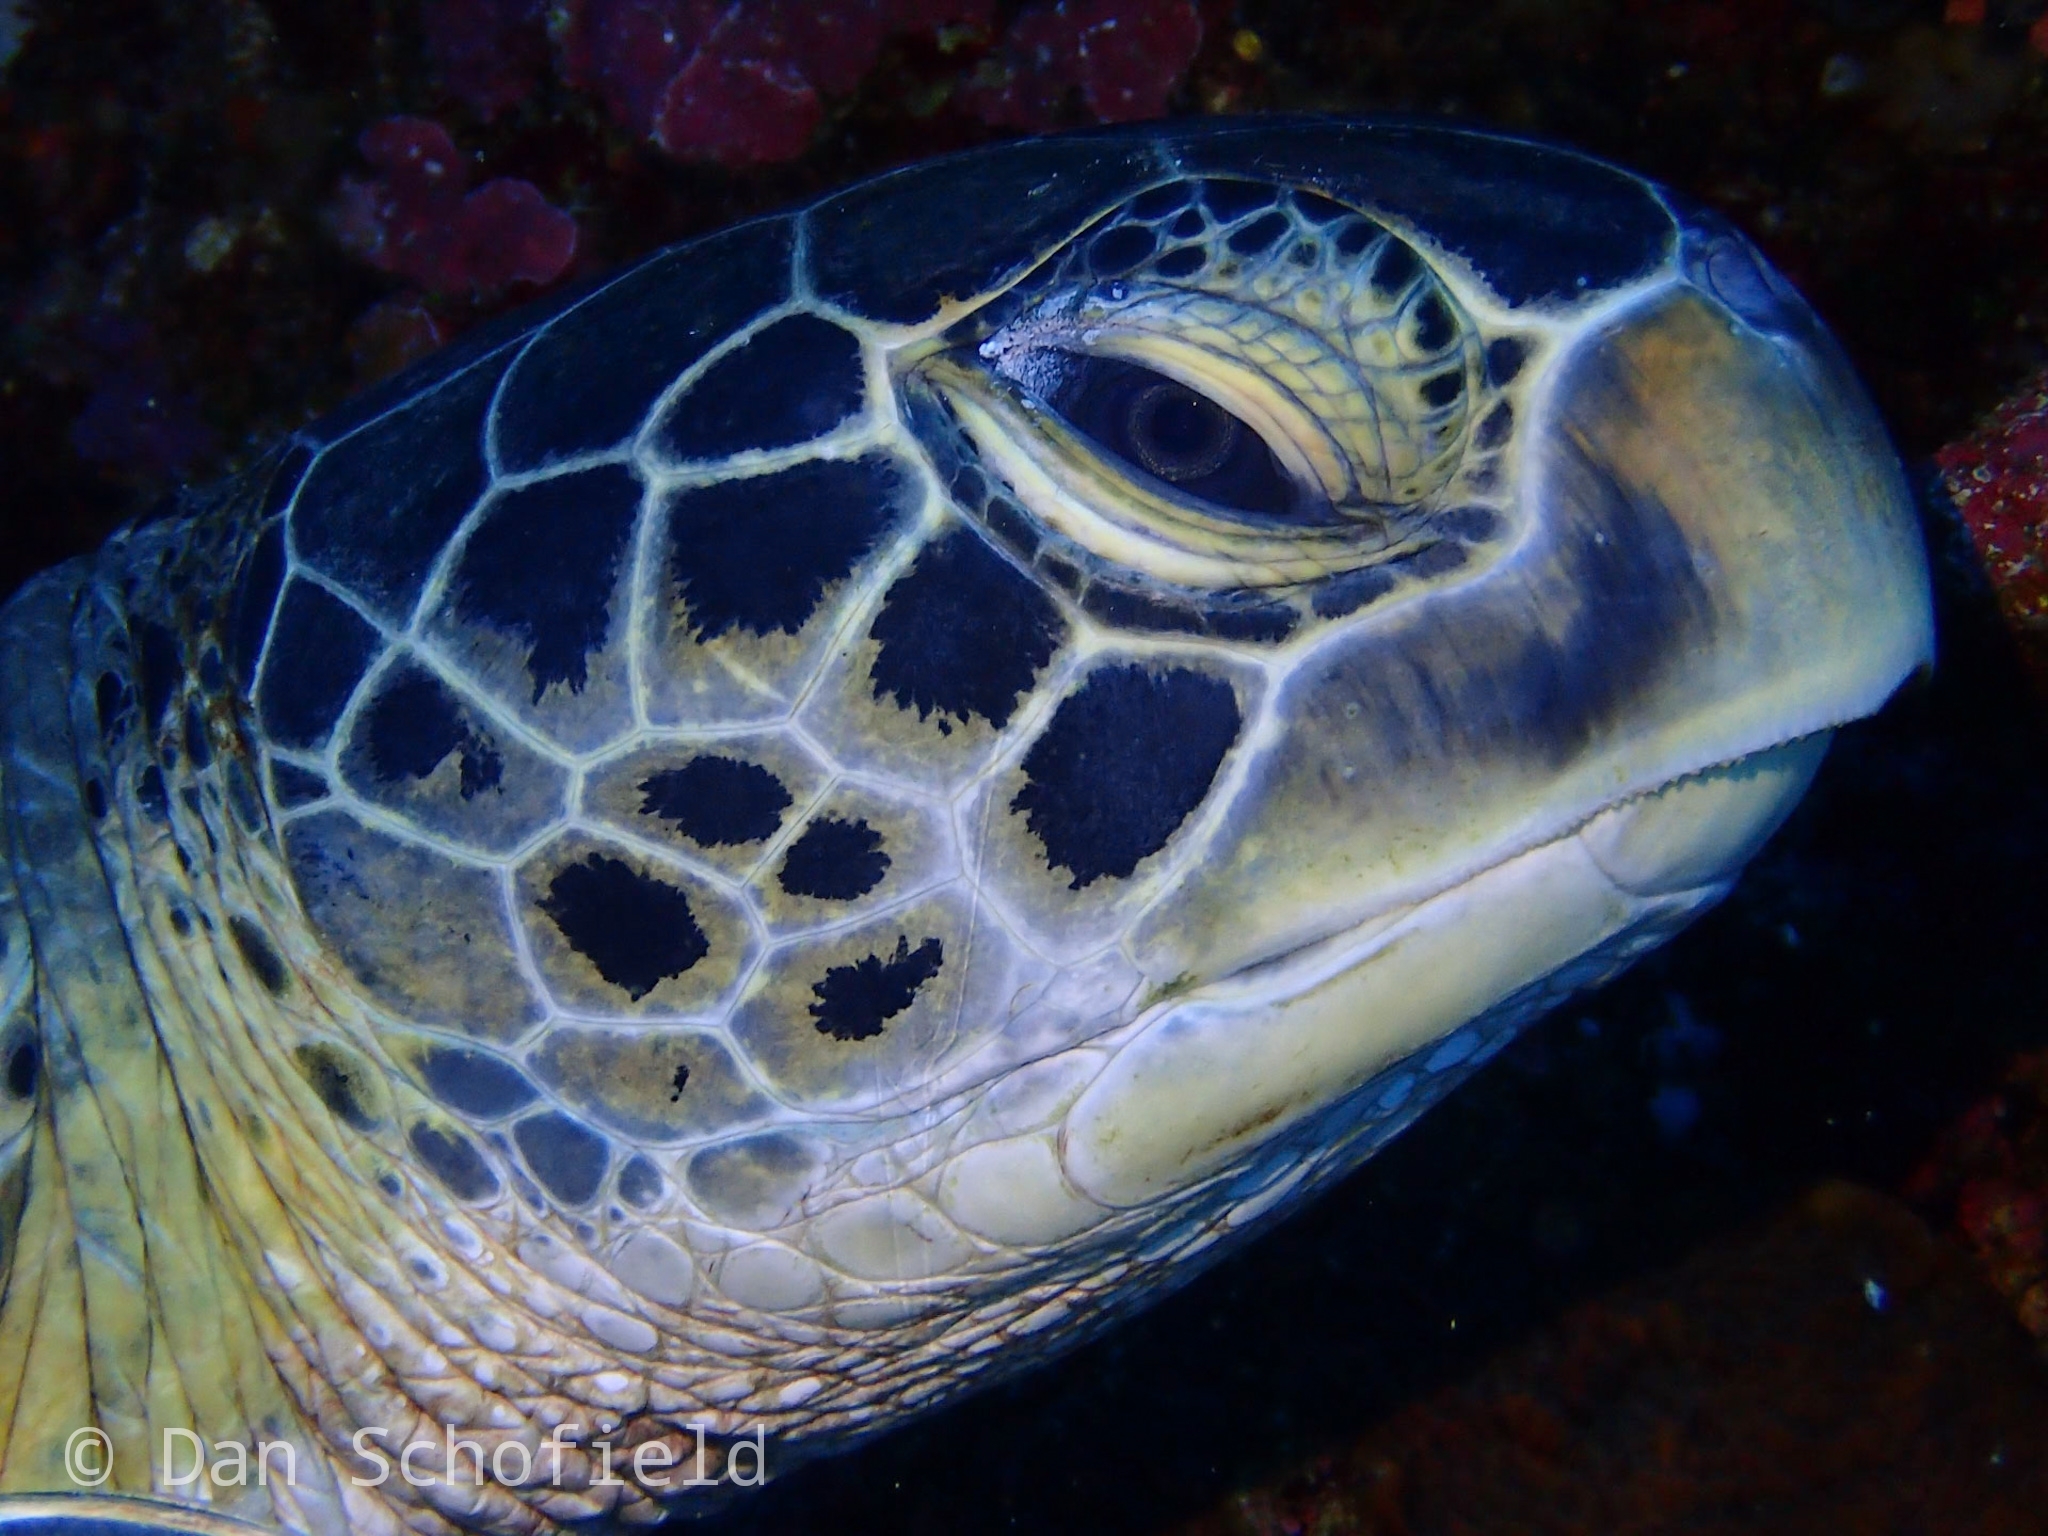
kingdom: Animalia
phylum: Chordata
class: Testudines
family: Cheloniidae
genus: Chelonia
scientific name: Chelonia mydas
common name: Green turtle
